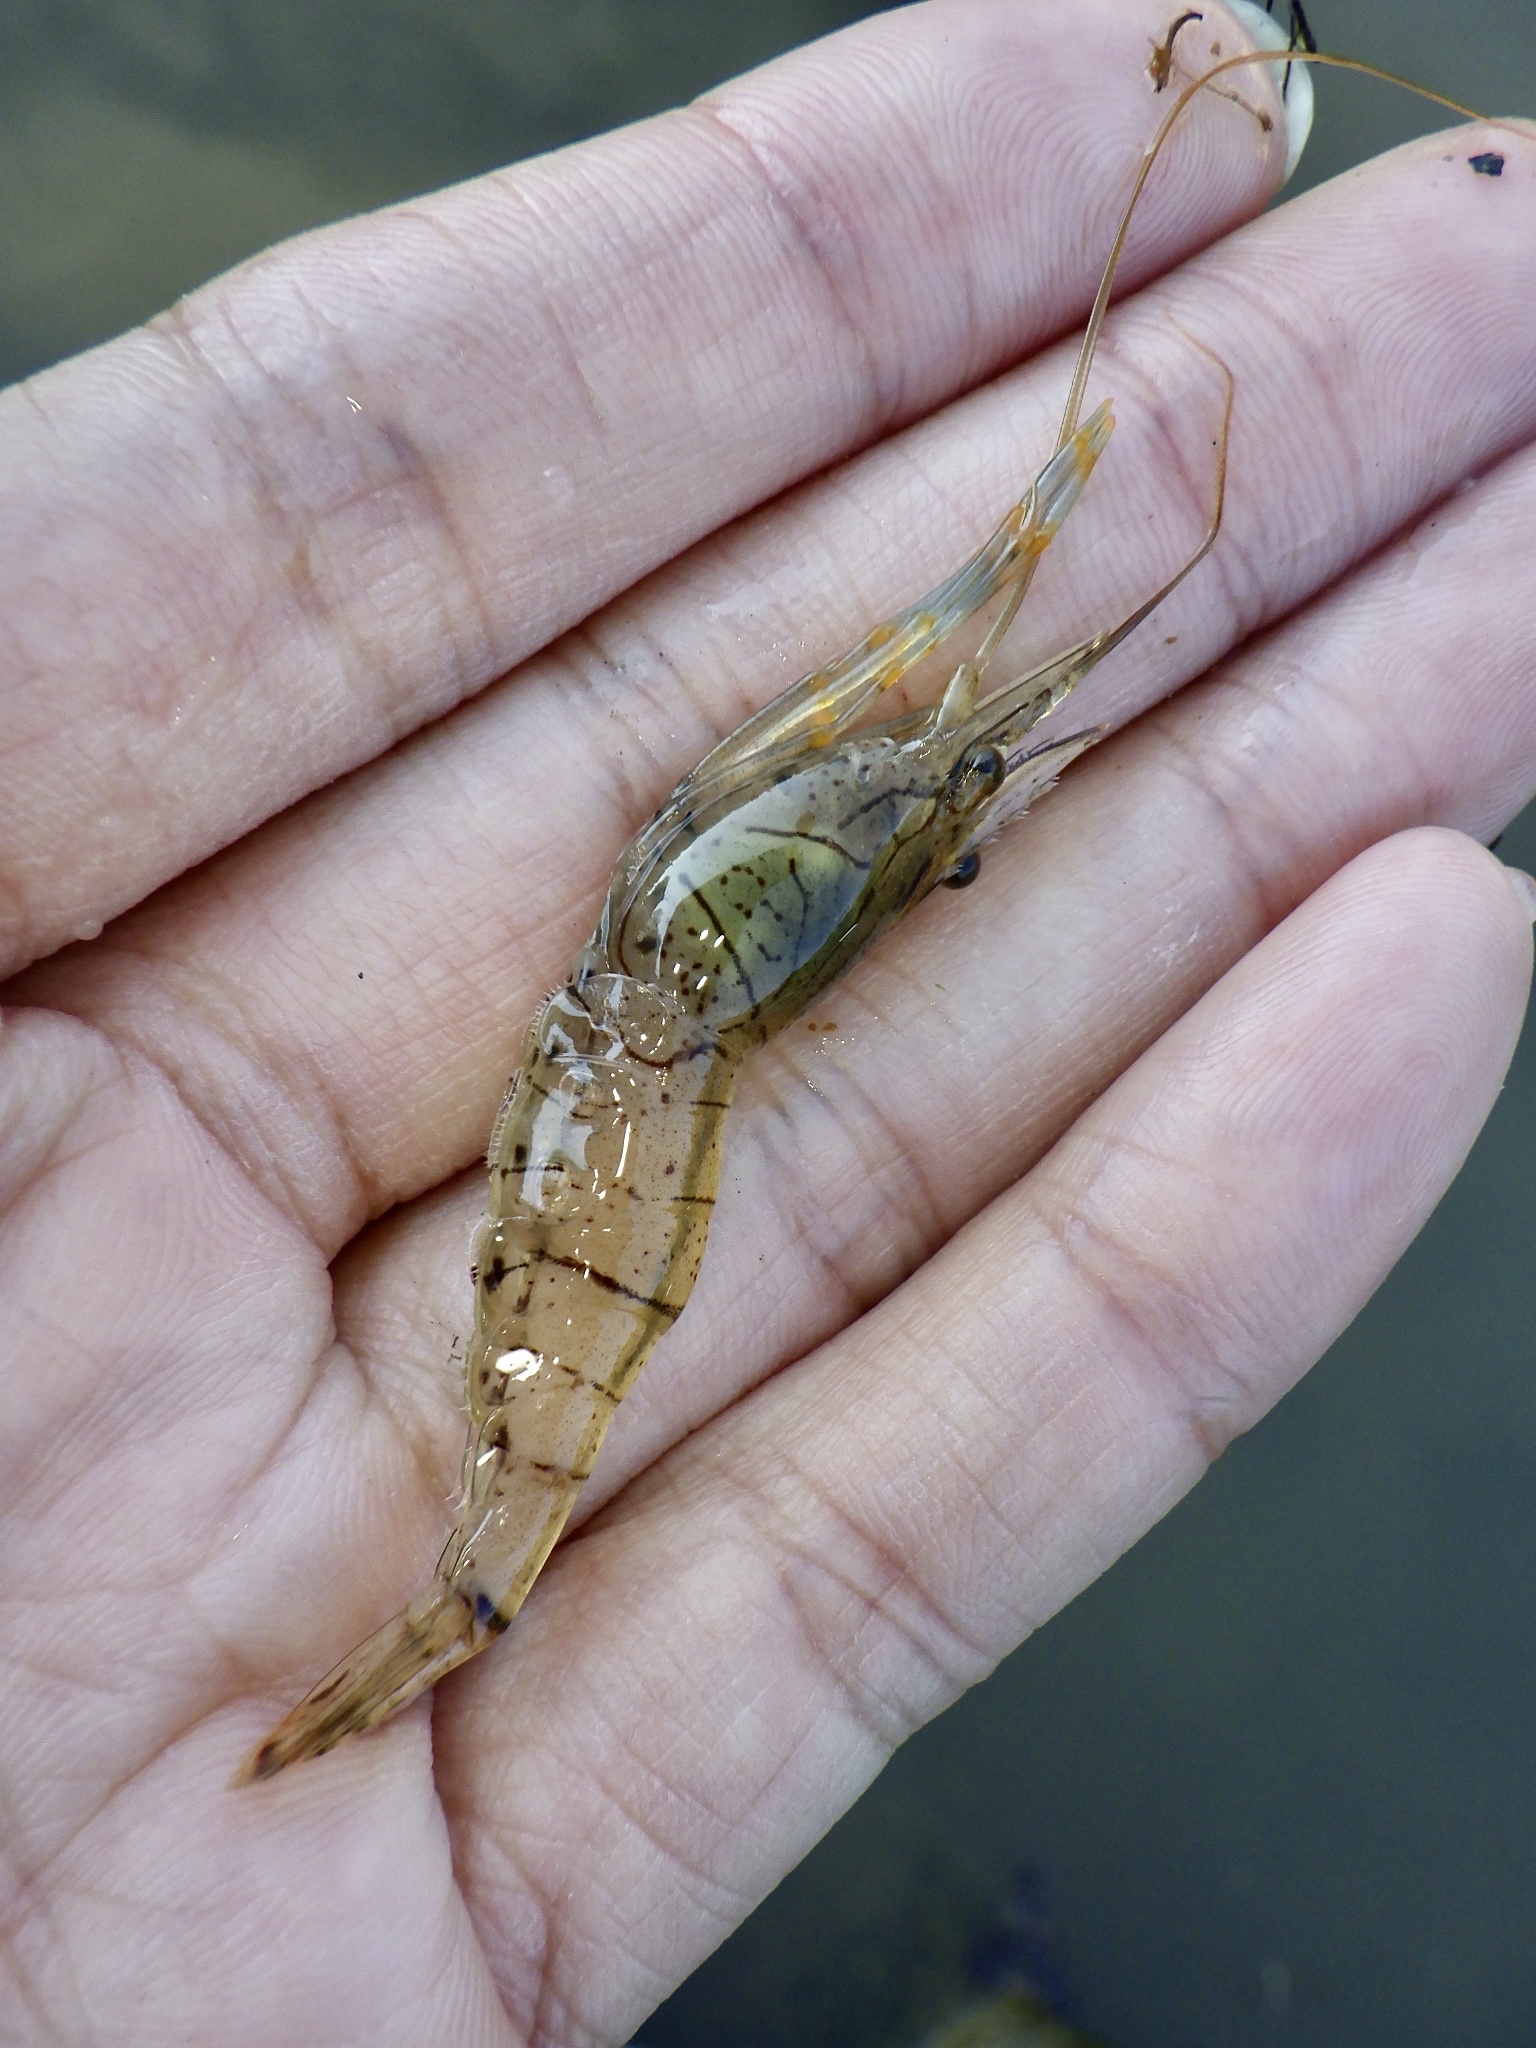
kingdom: Animalia
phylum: Arthropoda
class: Malacostraca
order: Decapoda
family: Palaemonidae
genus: Palaemon
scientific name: Palaemon paucidens
